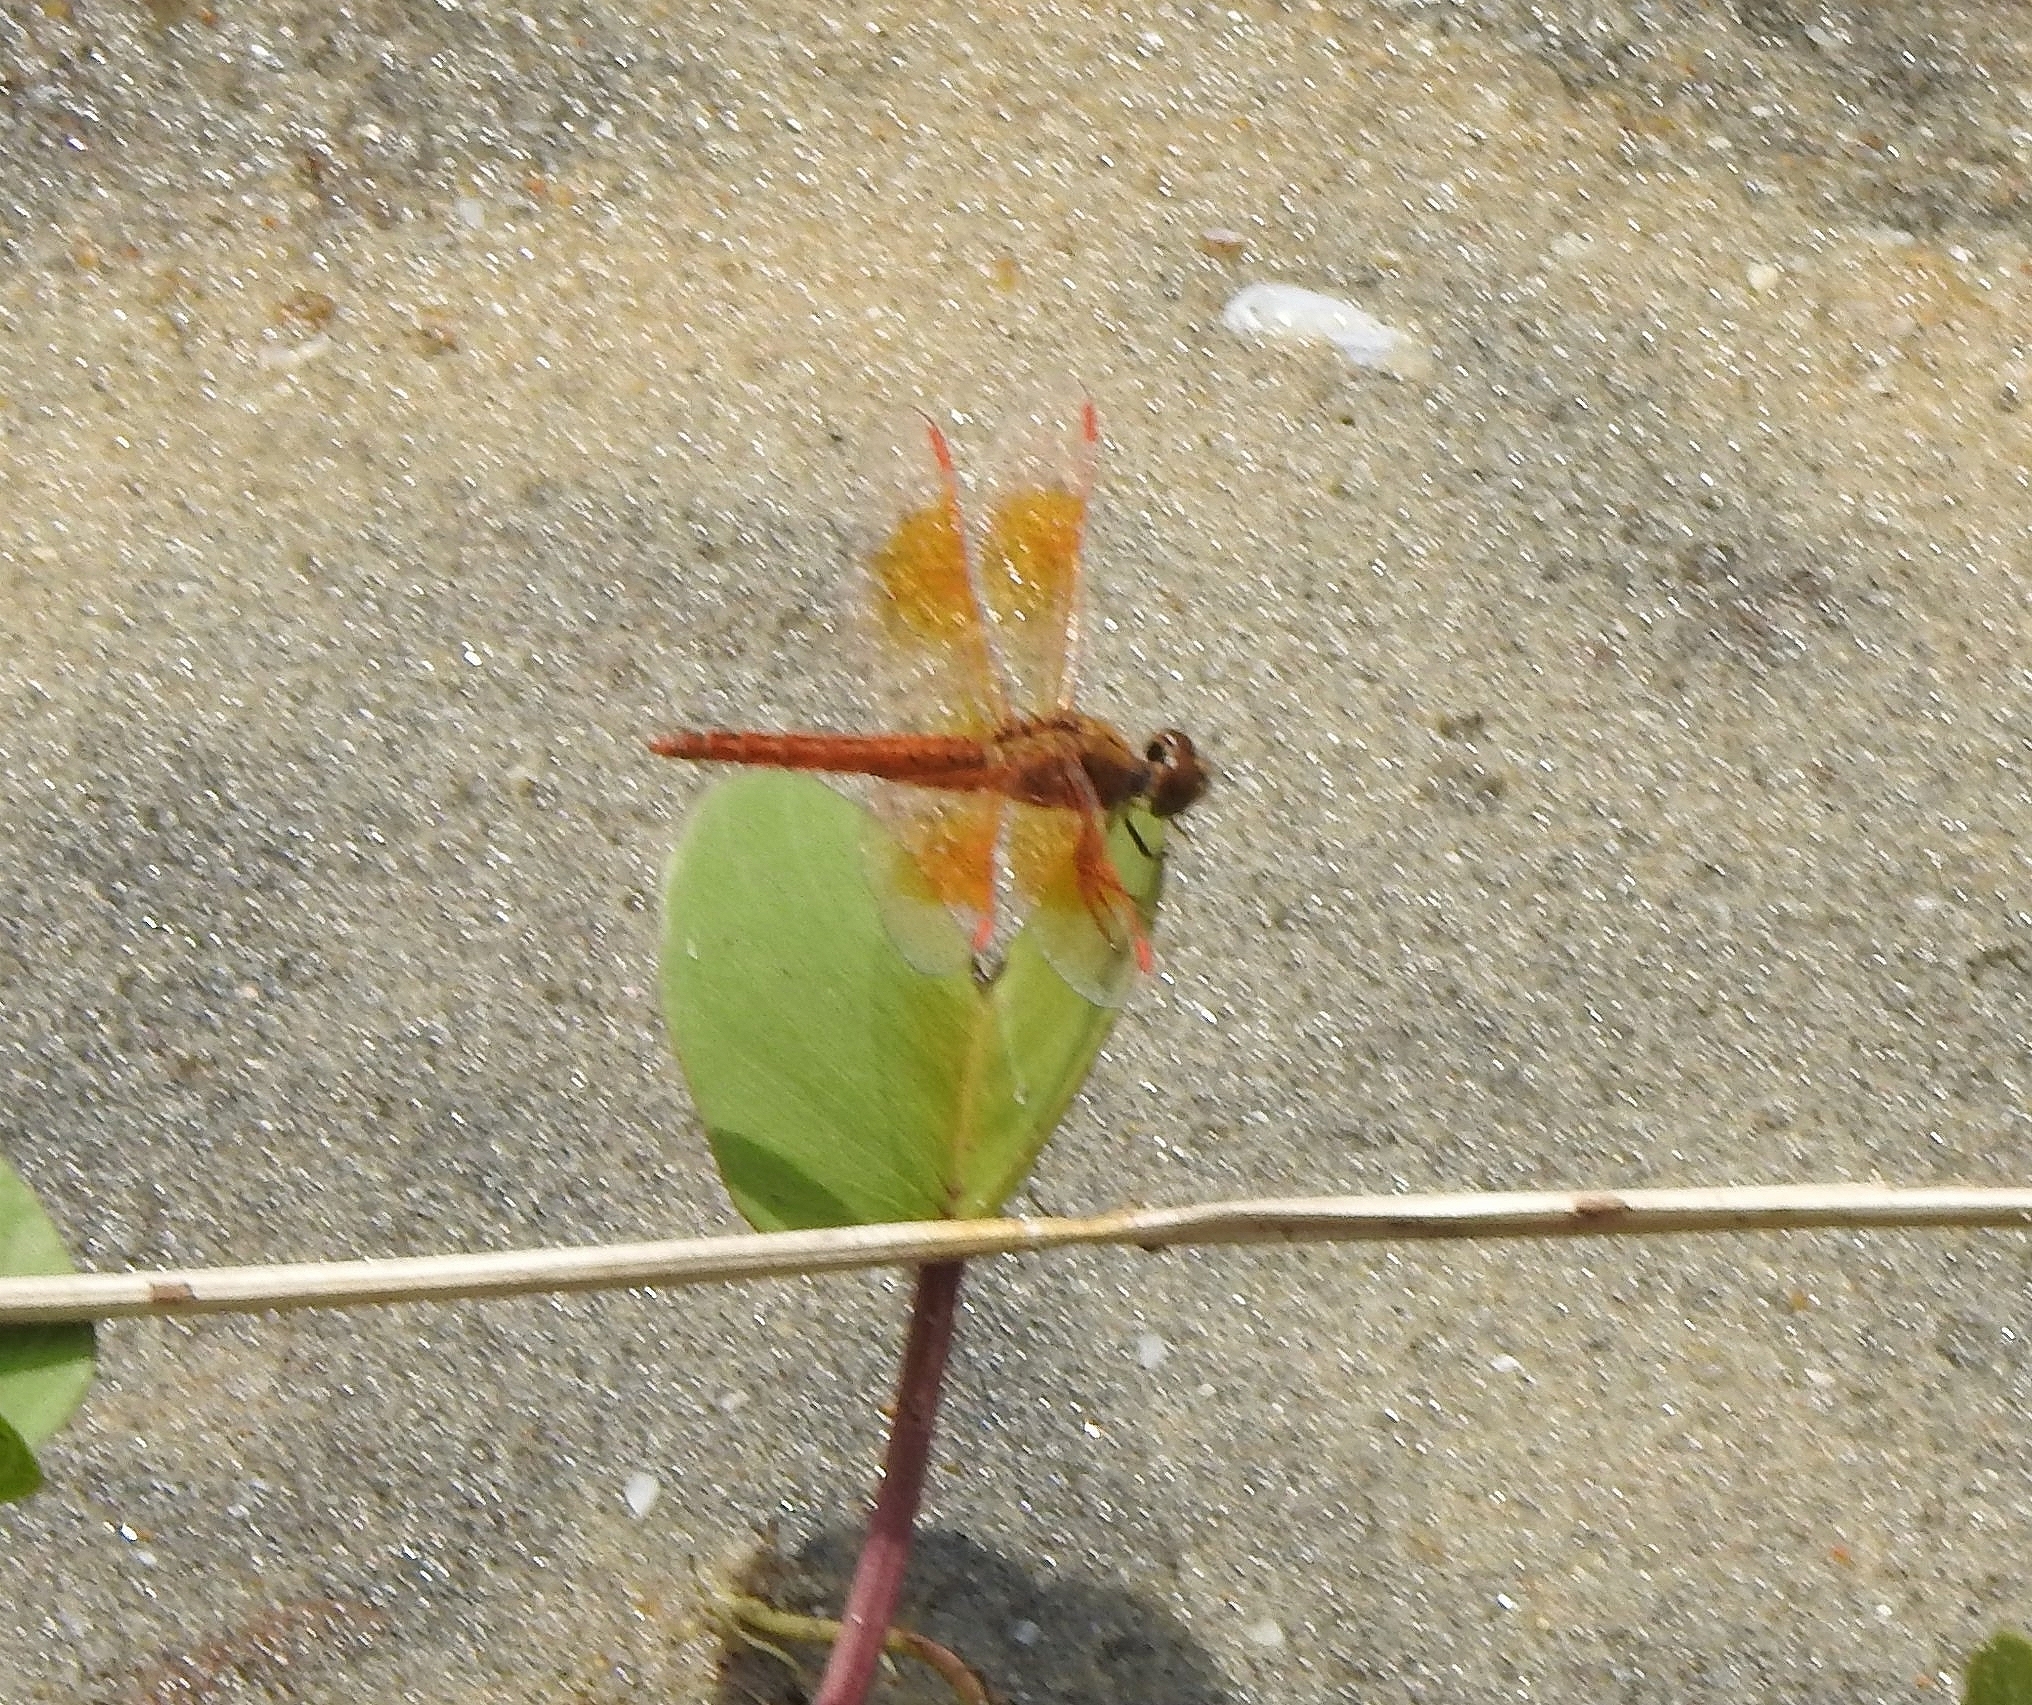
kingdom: Animalia
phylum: Arthropoda
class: Insecta
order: Odonata
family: Libellulidae
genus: Brachythemis
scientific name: Brachythemis contaminata
